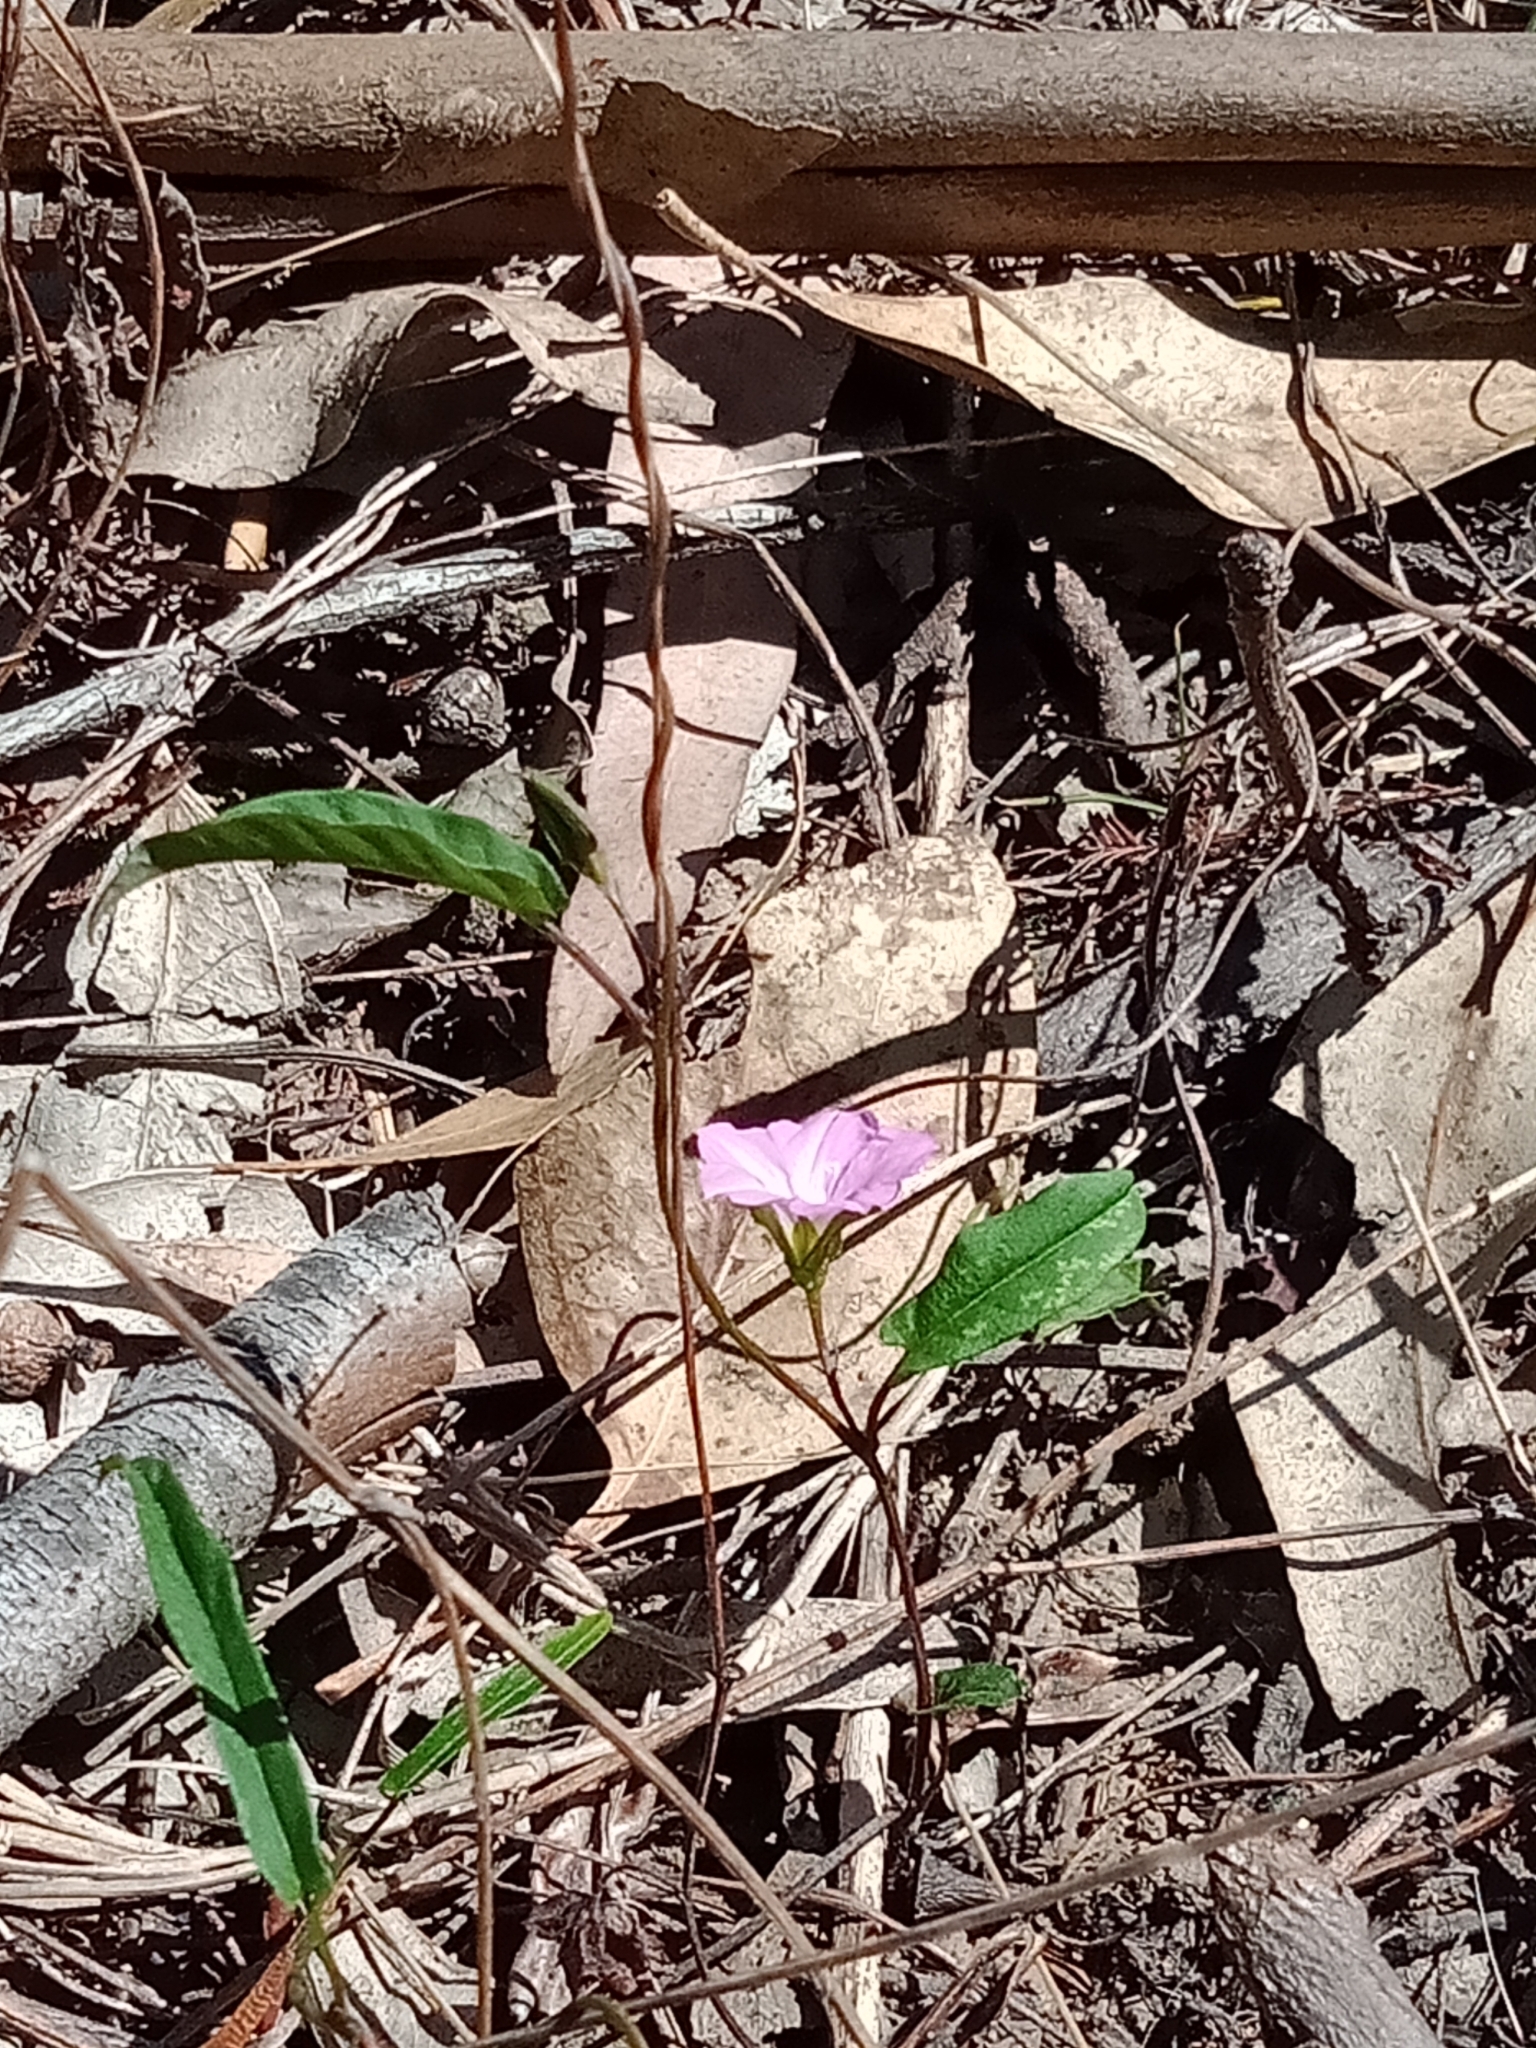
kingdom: Plantae
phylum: Tracheophyta
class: Magnoliopsida
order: Solanales
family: Convolvulaceae
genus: Polymeria
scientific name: Polymeria calycina
